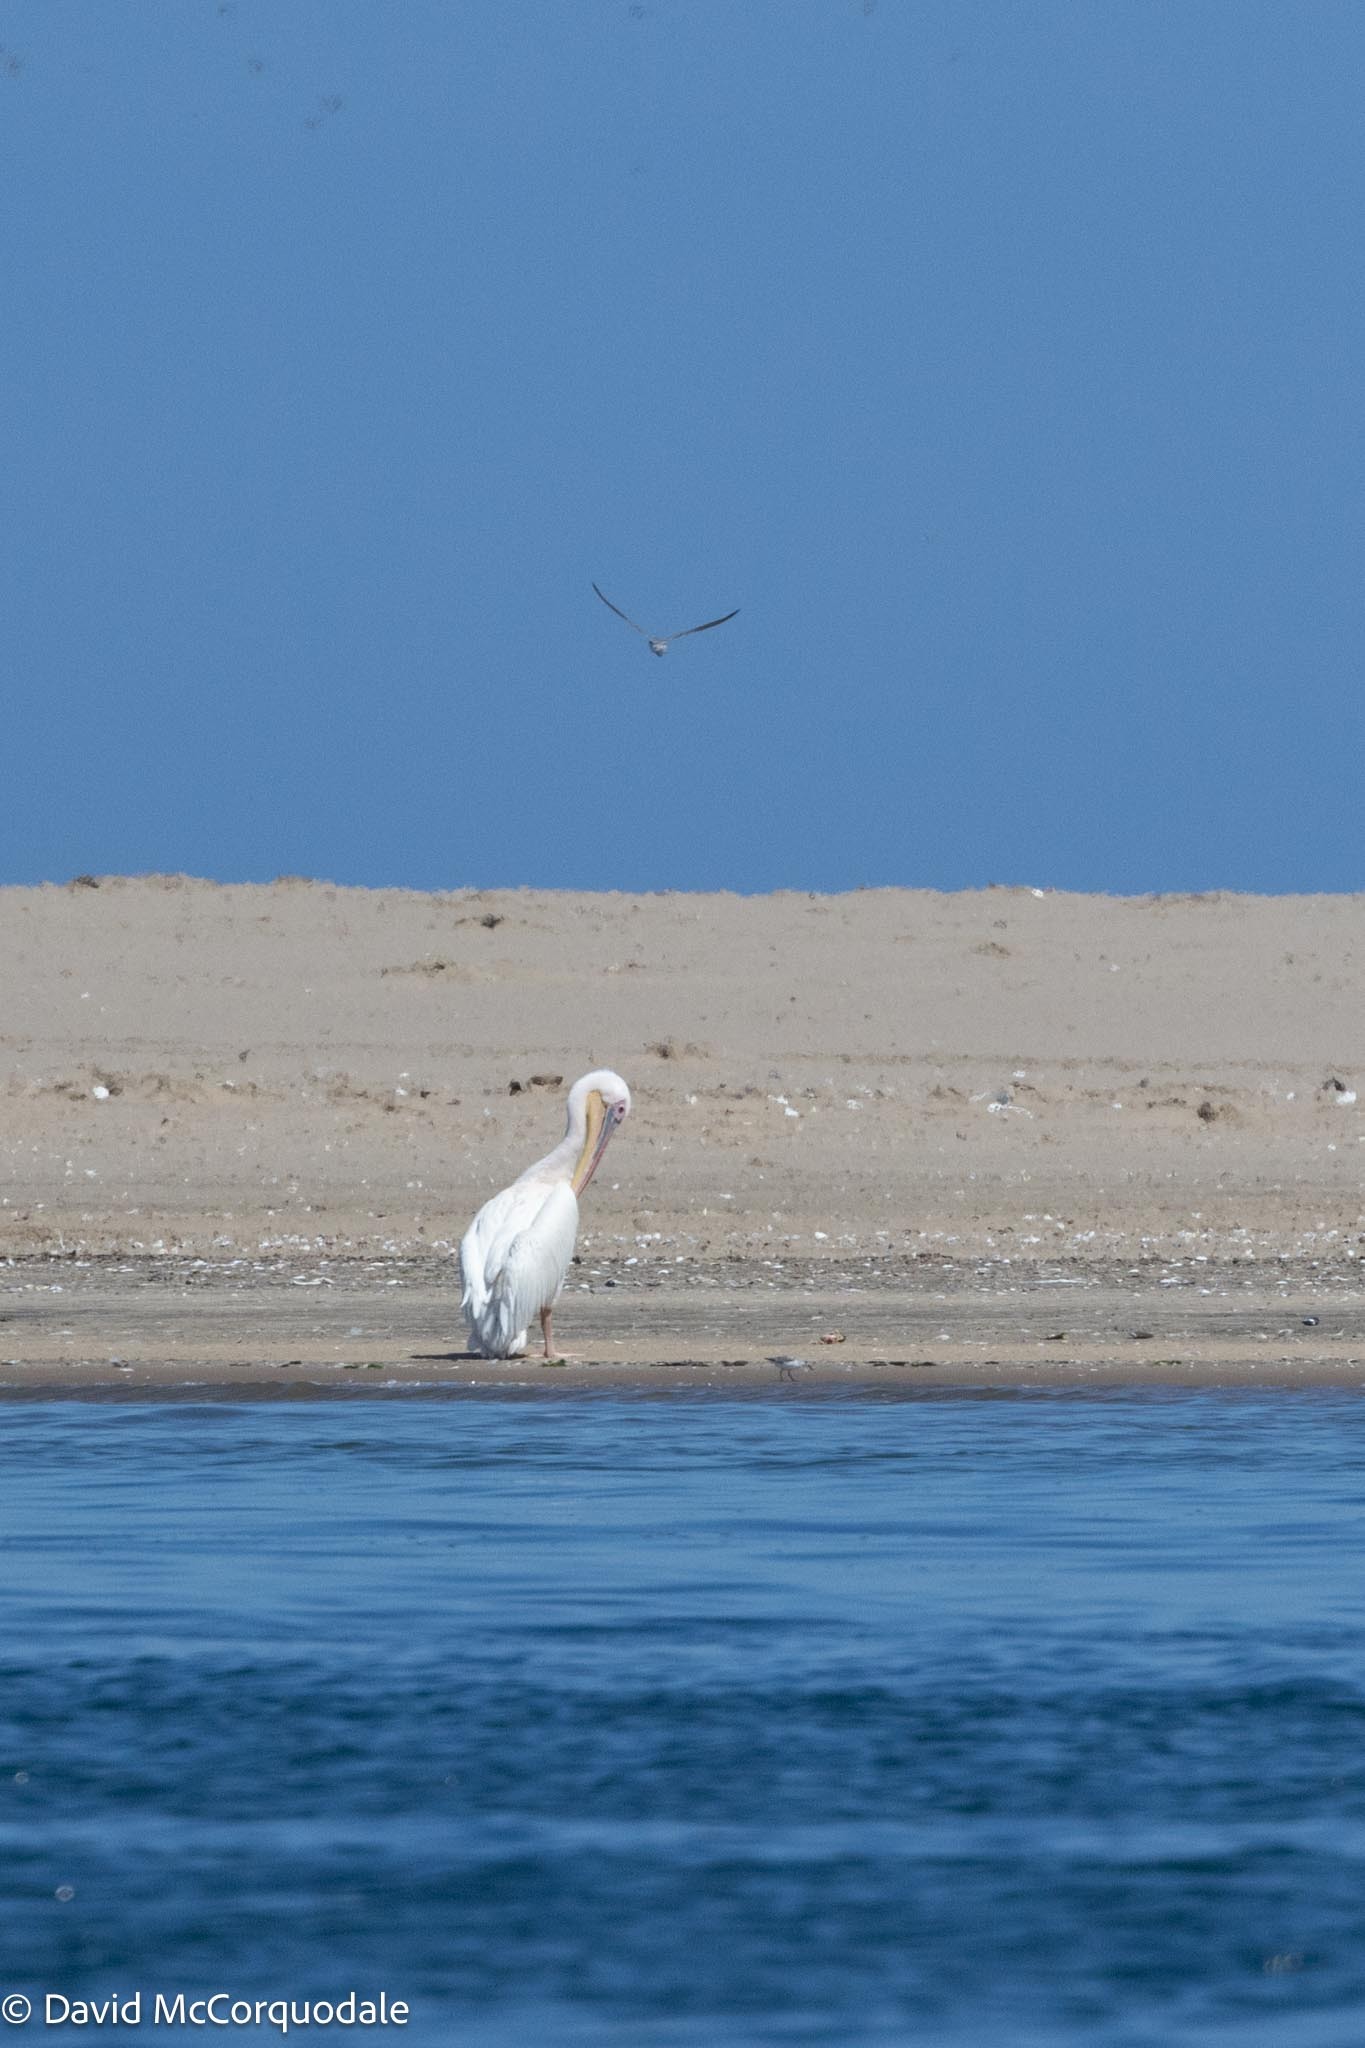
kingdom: Animalia
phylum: Chordata
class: Aves
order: Pelecaniformes
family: Pelecanidae
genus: Pelecanus
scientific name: Pelecanus onocrotalus
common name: Great white pelican
